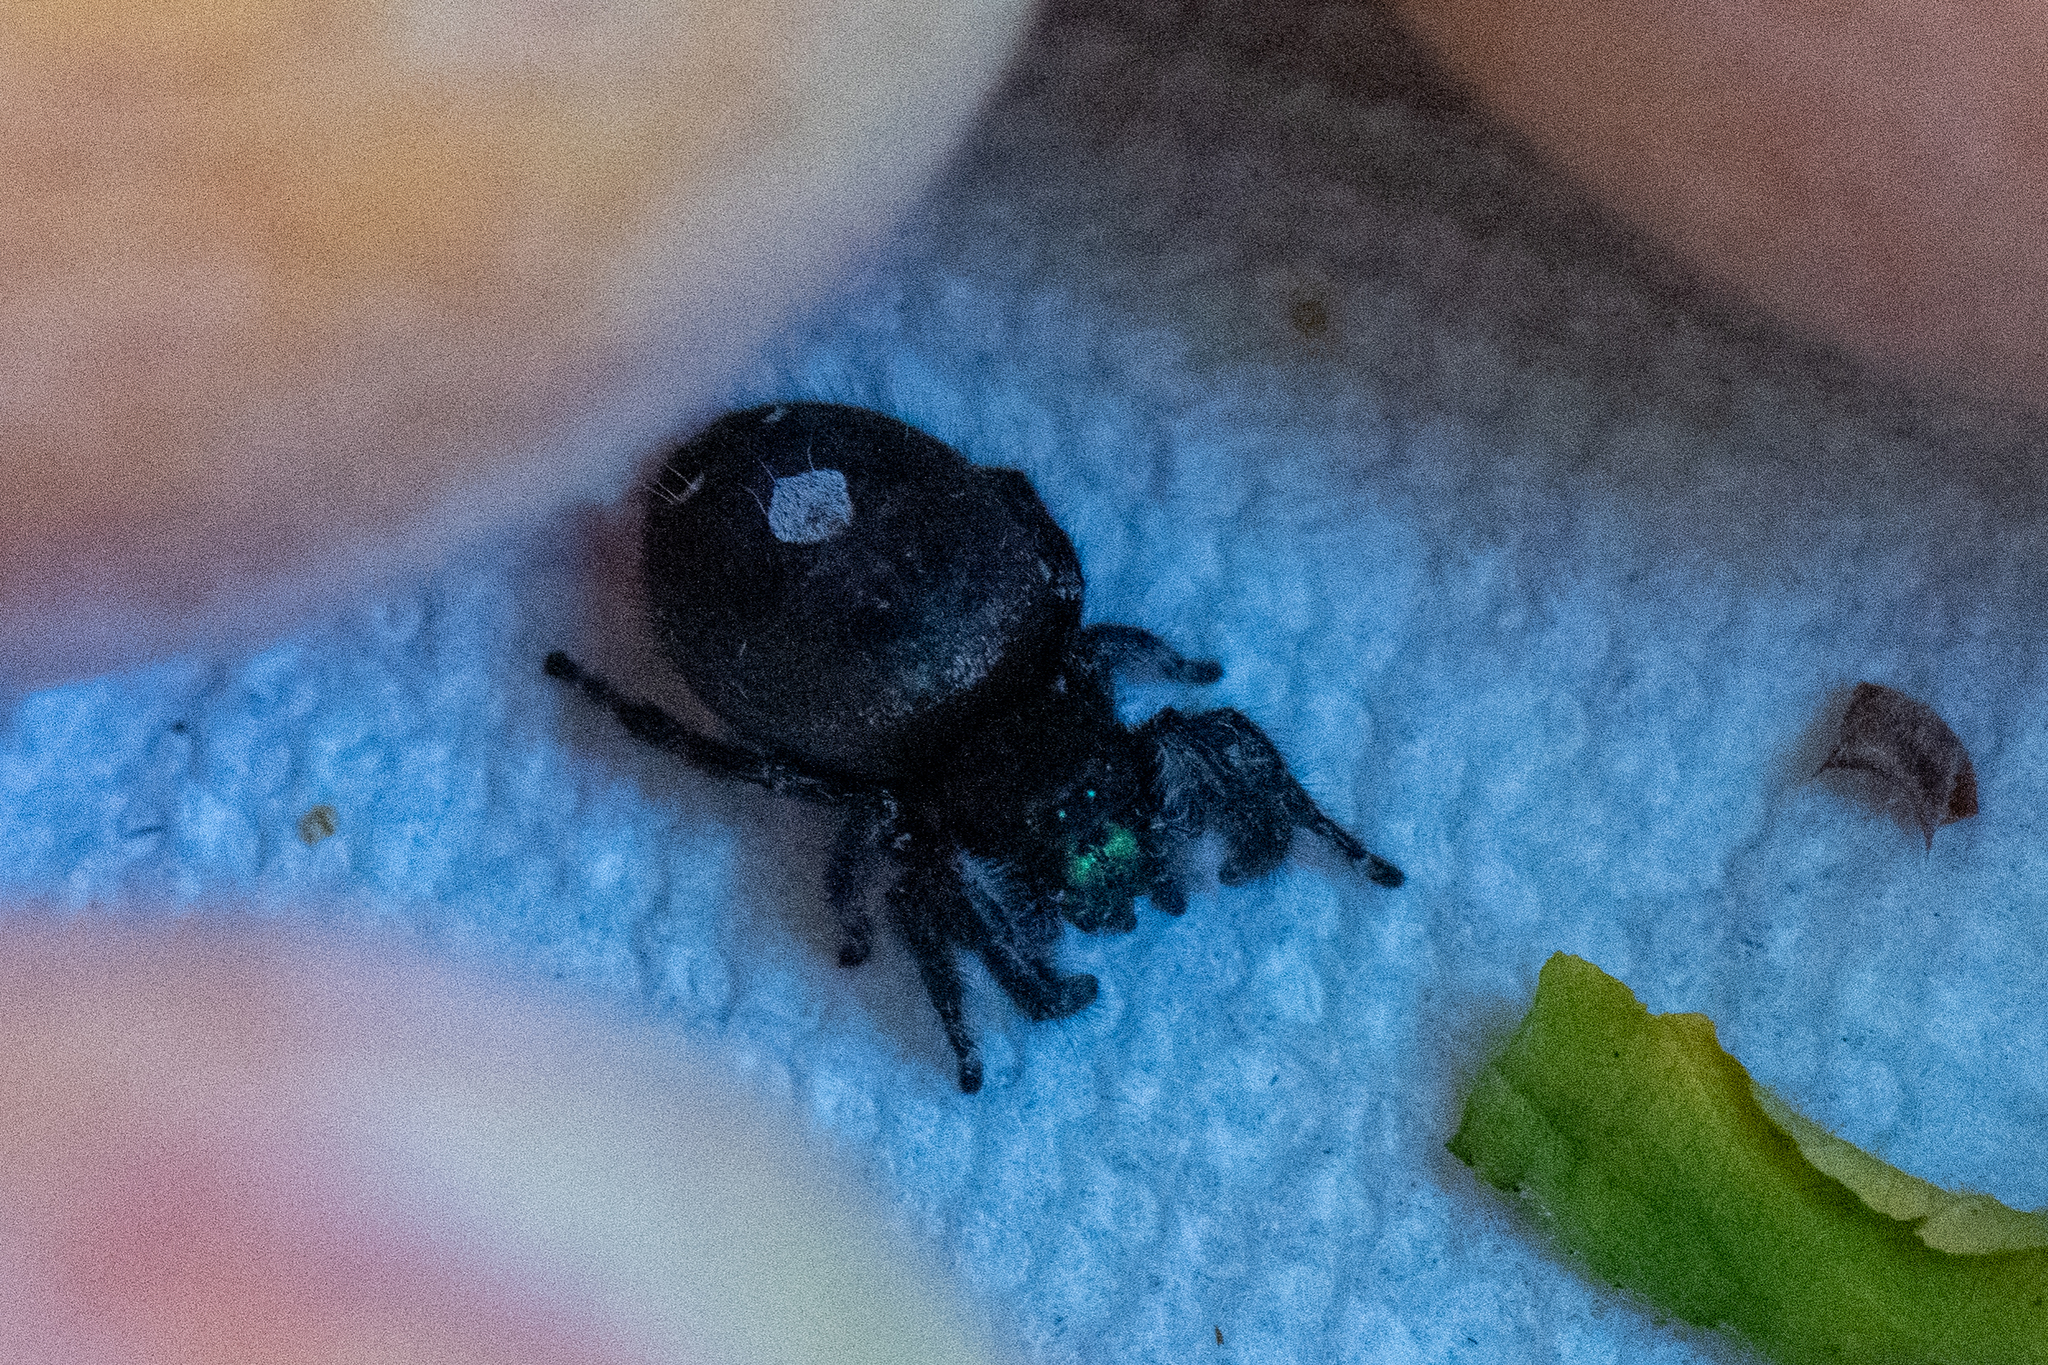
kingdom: Animalia
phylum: Arthropoda
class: Arachnida
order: Araneae
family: Salticidae
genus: Phidippus
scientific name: Phidippus audax
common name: Bold jumper
